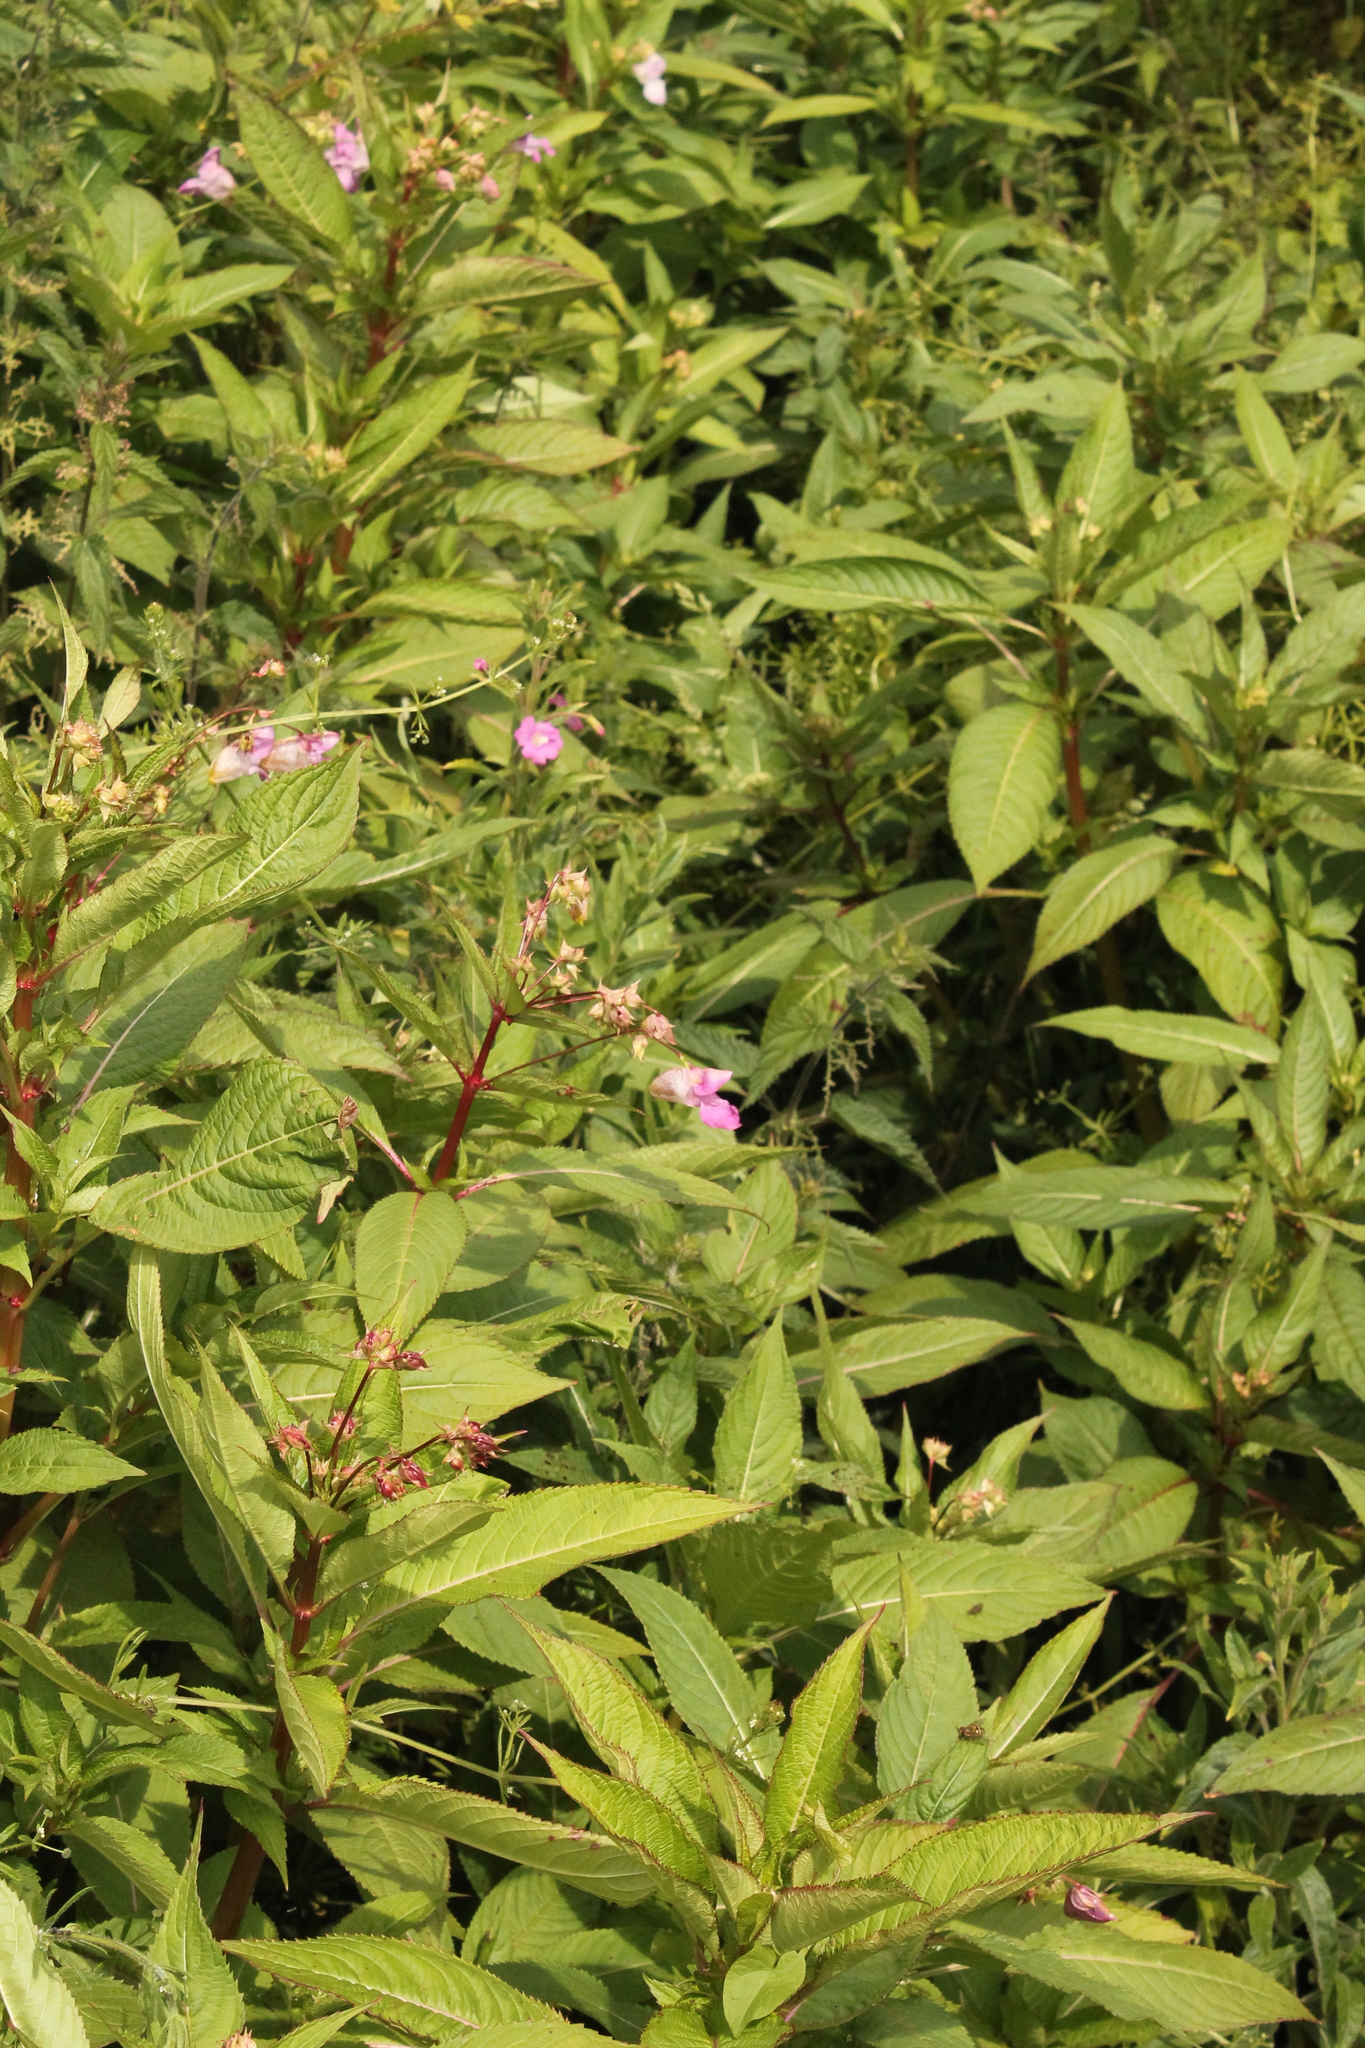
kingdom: Plantae
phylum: Tracheophyta
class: Magnoliopsida
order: Ericales
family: Balsaminaceae
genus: Impatiens
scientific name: Impatiens glandulifera
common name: Himalayan balsam
